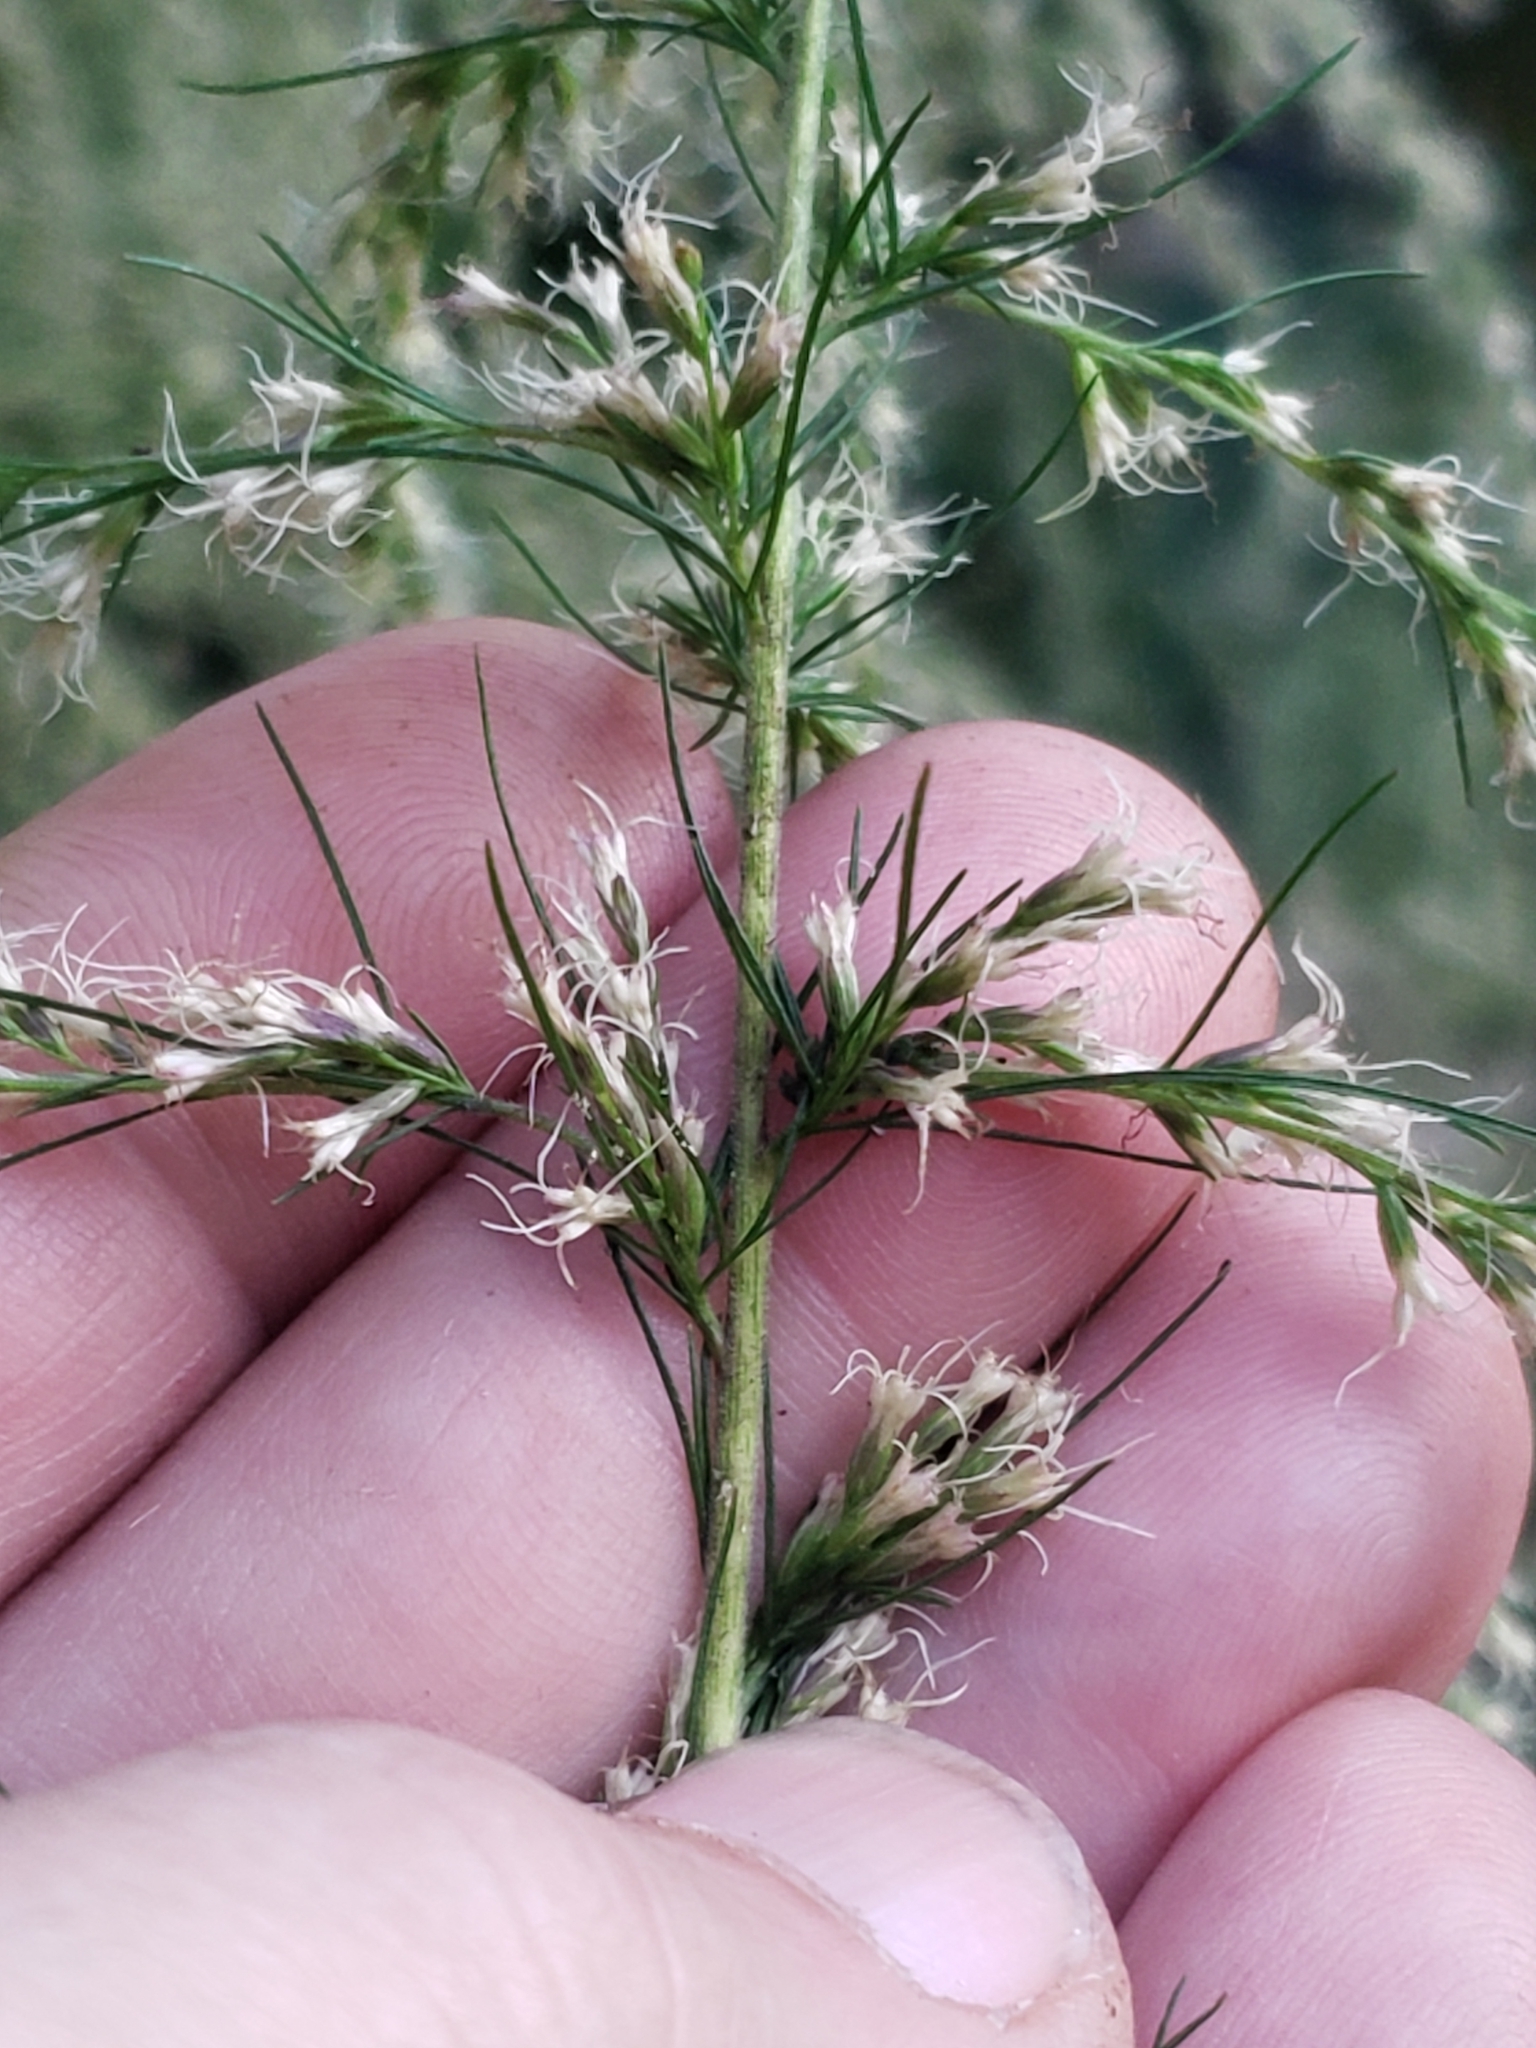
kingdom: Plantae
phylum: Tracheophyta
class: Magnoliopsida
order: Asterales
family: Asteraceae
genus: Eupatorium
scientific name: Eupatorium capillifolium
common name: Dog-fennel
